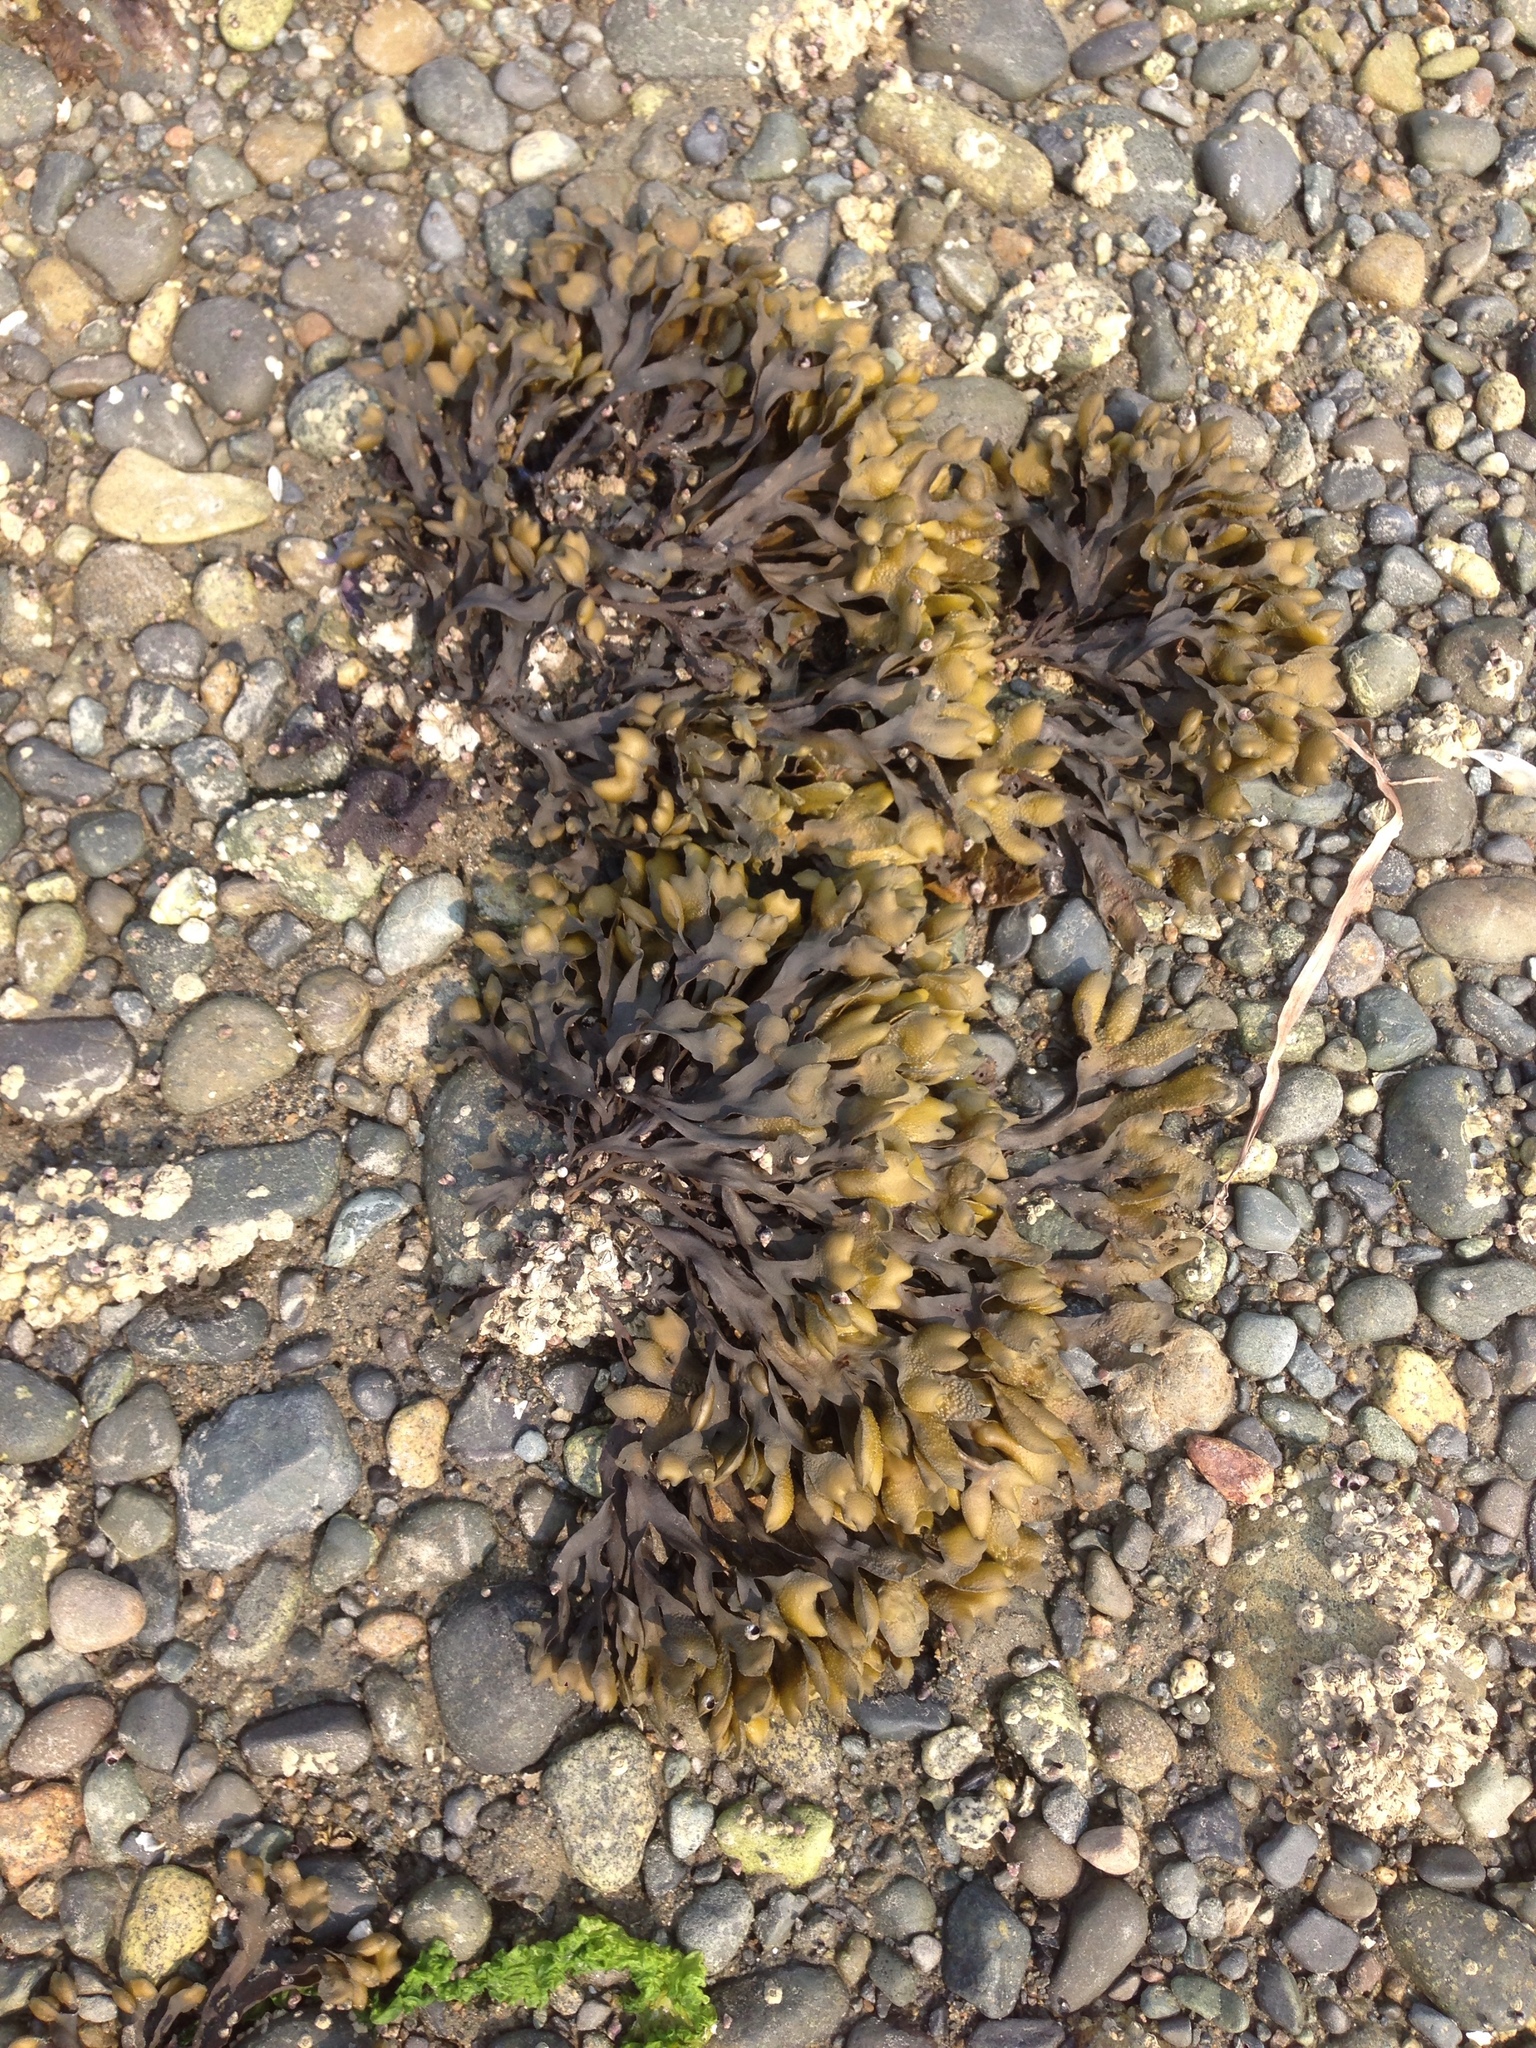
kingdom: Chromista
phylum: Ochrophyta
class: Phaeophyceae
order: Fucales
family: Fucaceae
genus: Fucus
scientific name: Fucus distichus
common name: Rockweed
